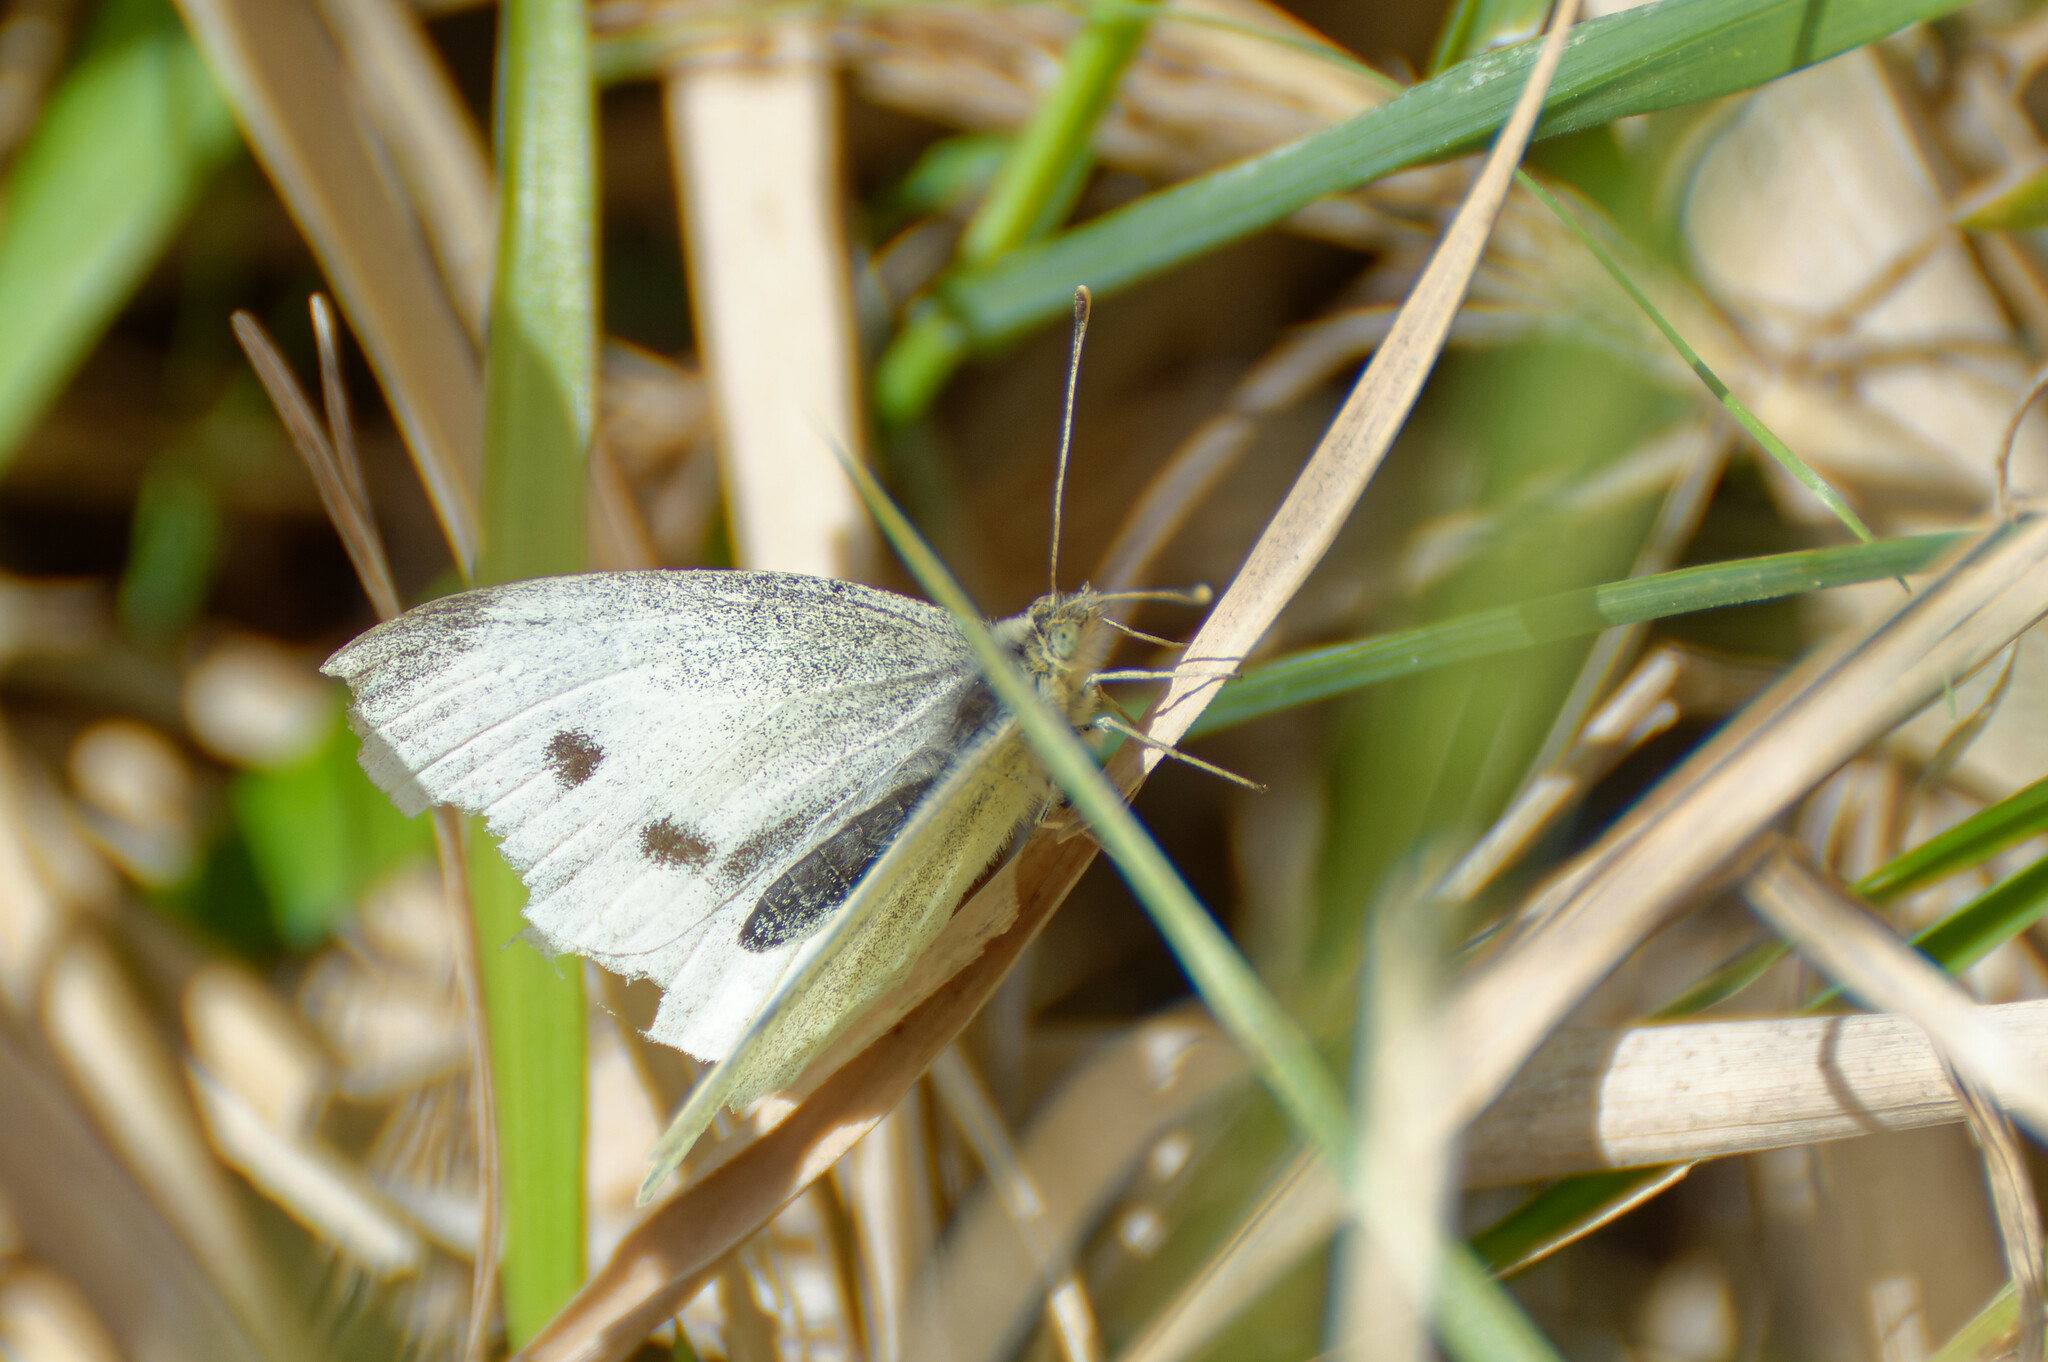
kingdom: Animalia
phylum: Arthropoda
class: Insecta
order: Lepidoptera
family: Pieridae
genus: Pieris
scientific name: Pieris rapae
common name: Small white
